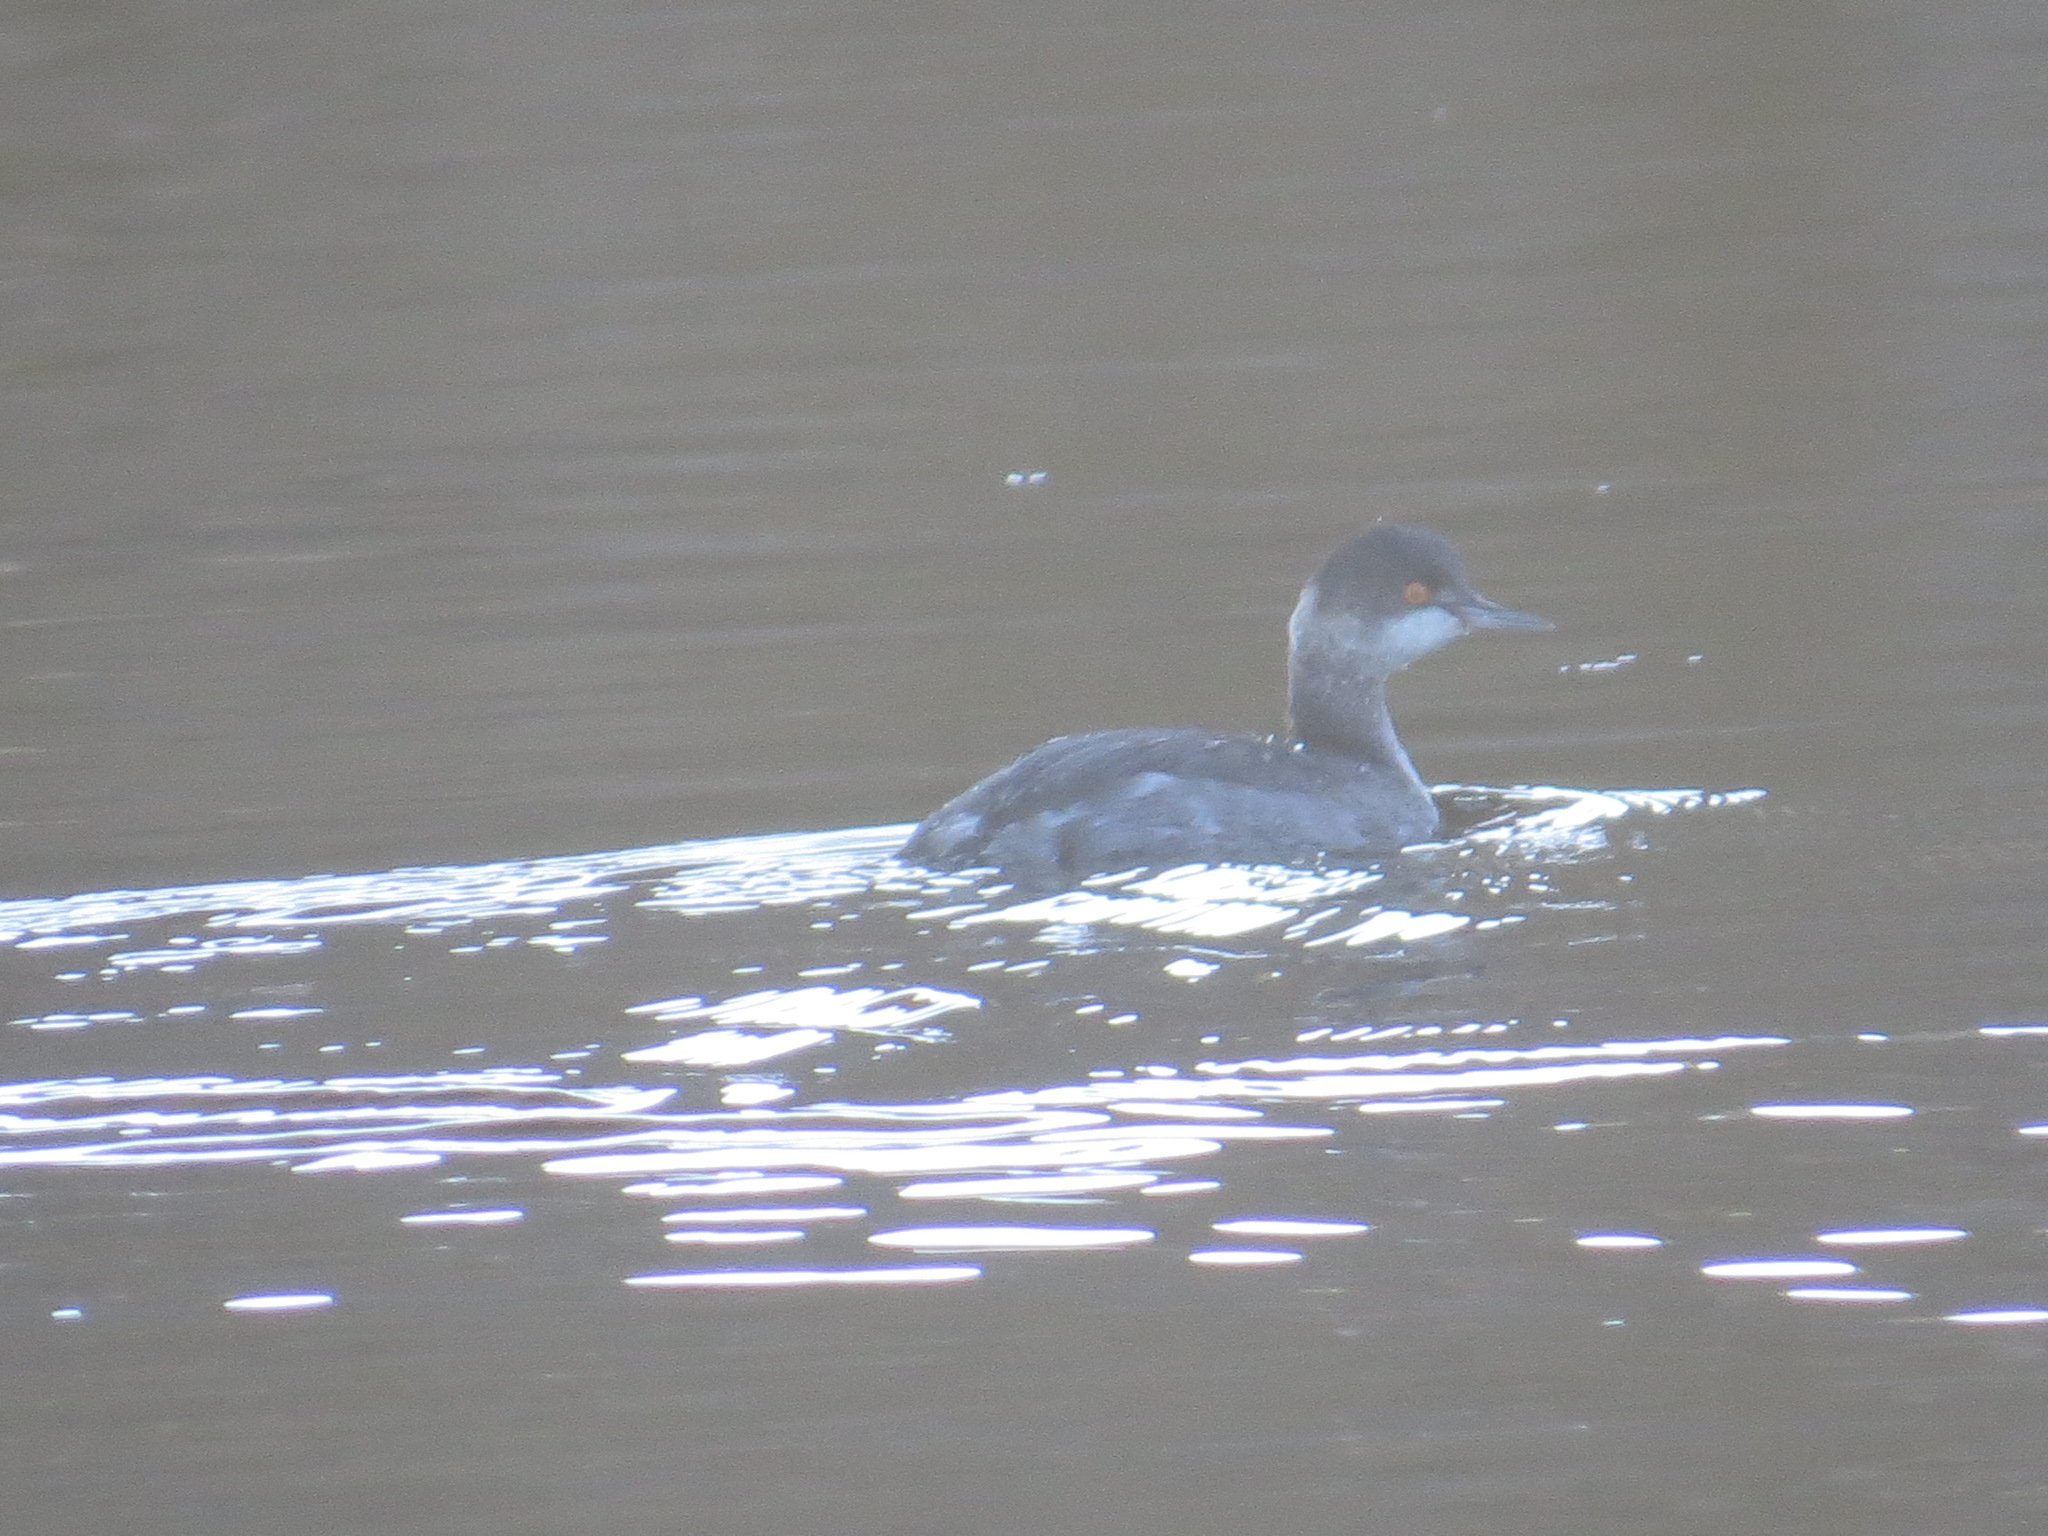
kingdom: Animalia
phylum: Chordata
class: Aves
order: Podicipediformes
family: Podicipedidae
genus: Podiceps
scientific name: Podiceps nigricollis
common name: Black-necked grebe
